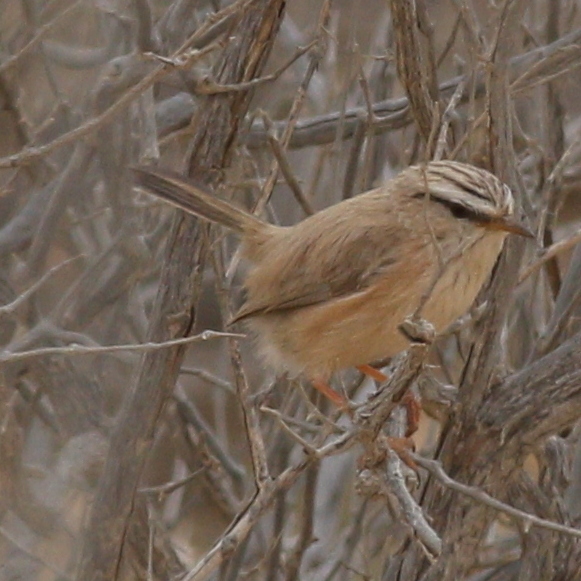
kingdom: Animalia
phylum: Chordata
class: Aves
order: Passeriformes
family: Scotocercidae
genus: Scotocerca
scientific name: Scotocerca inquieta
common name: Scrub warbler
